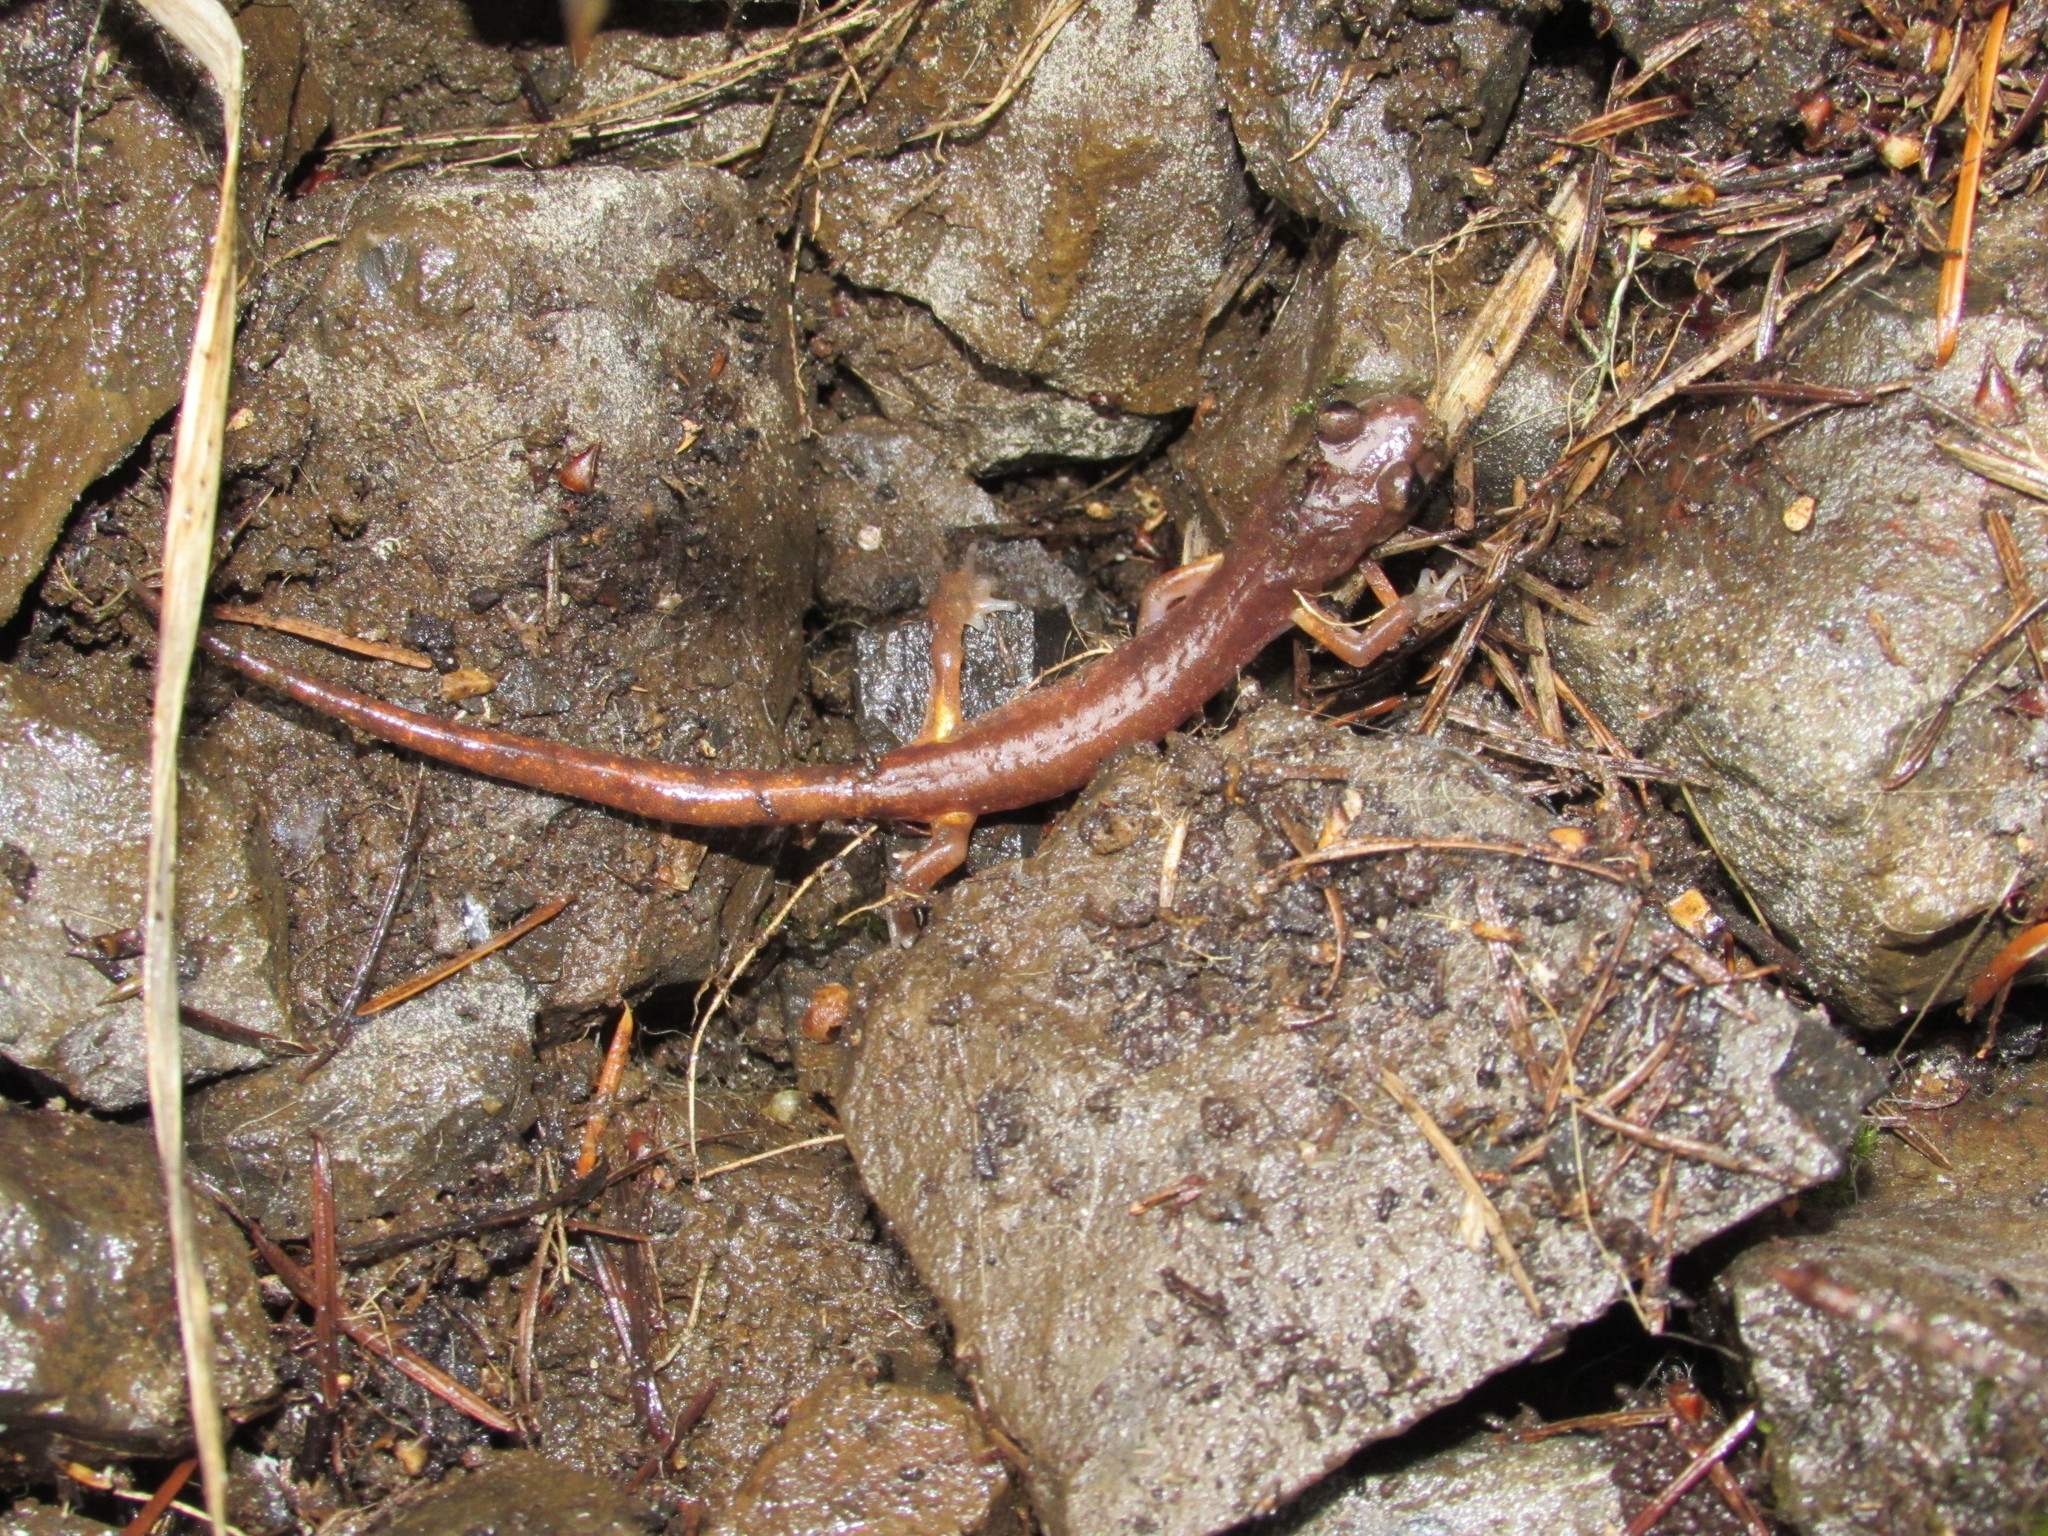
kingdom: Animalia
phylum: Chordata
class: Amphibia
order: Caudata
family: Plethodontidae
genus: Ensatina
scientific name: Ensatina eschscholtzii
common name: Ensatina
